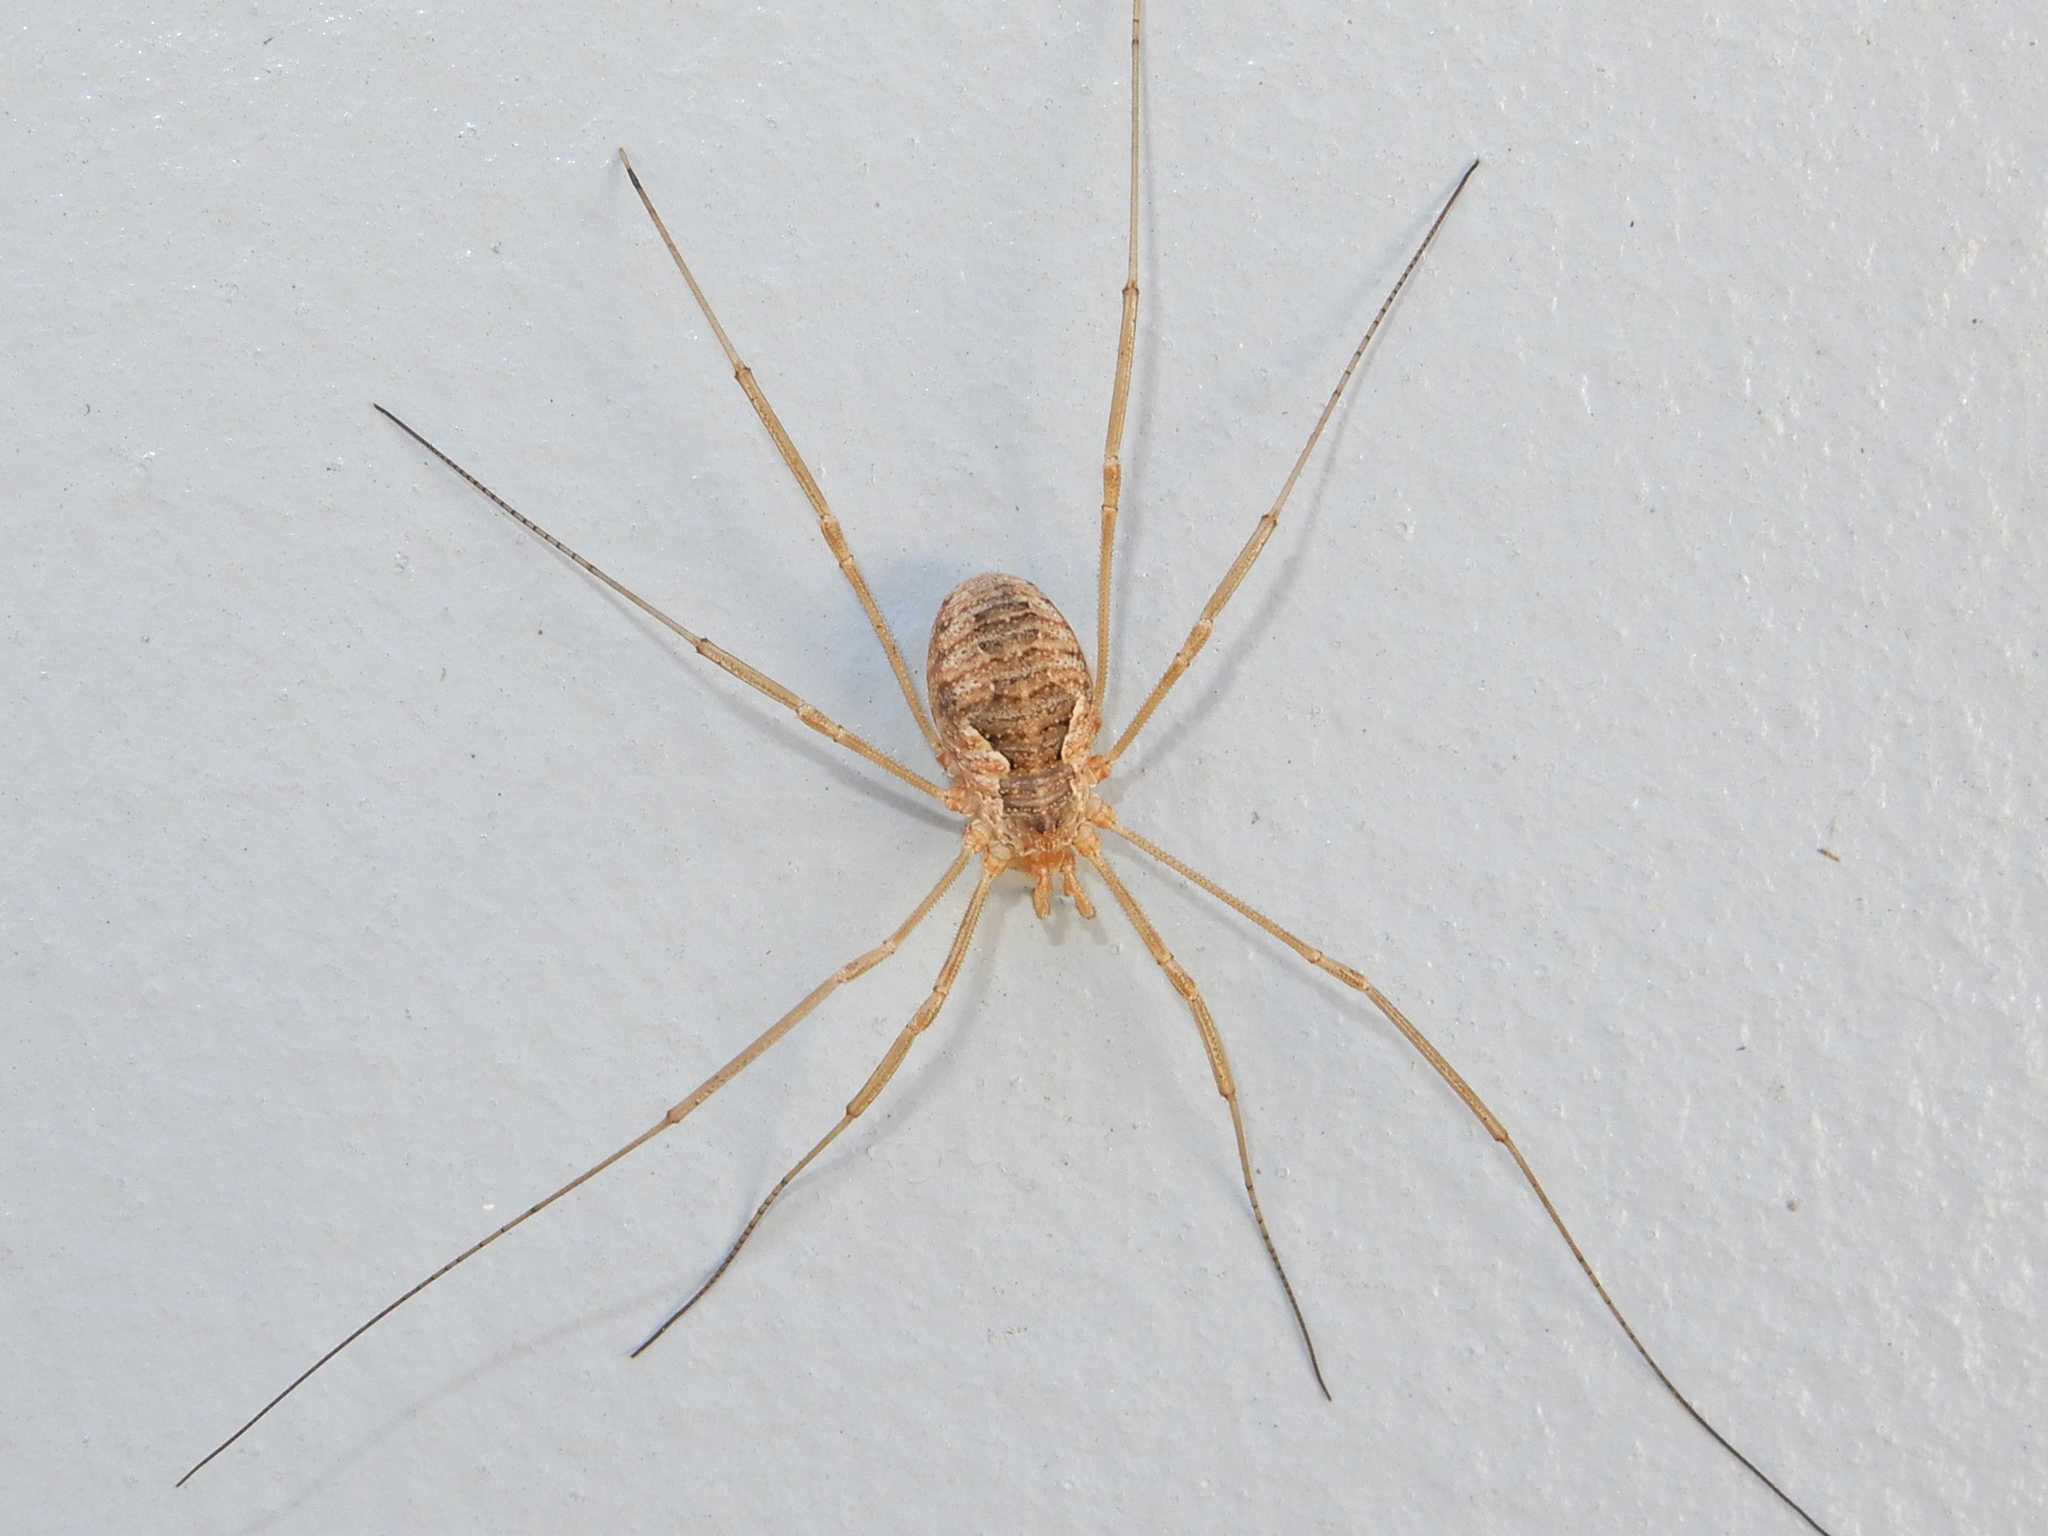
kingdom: Animalia
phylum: Arthropoda
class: Arachnida
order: Opiliones
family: Phalangiidae
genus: Phalangium
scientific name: Phalangium opilio
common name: Daddy longleg
